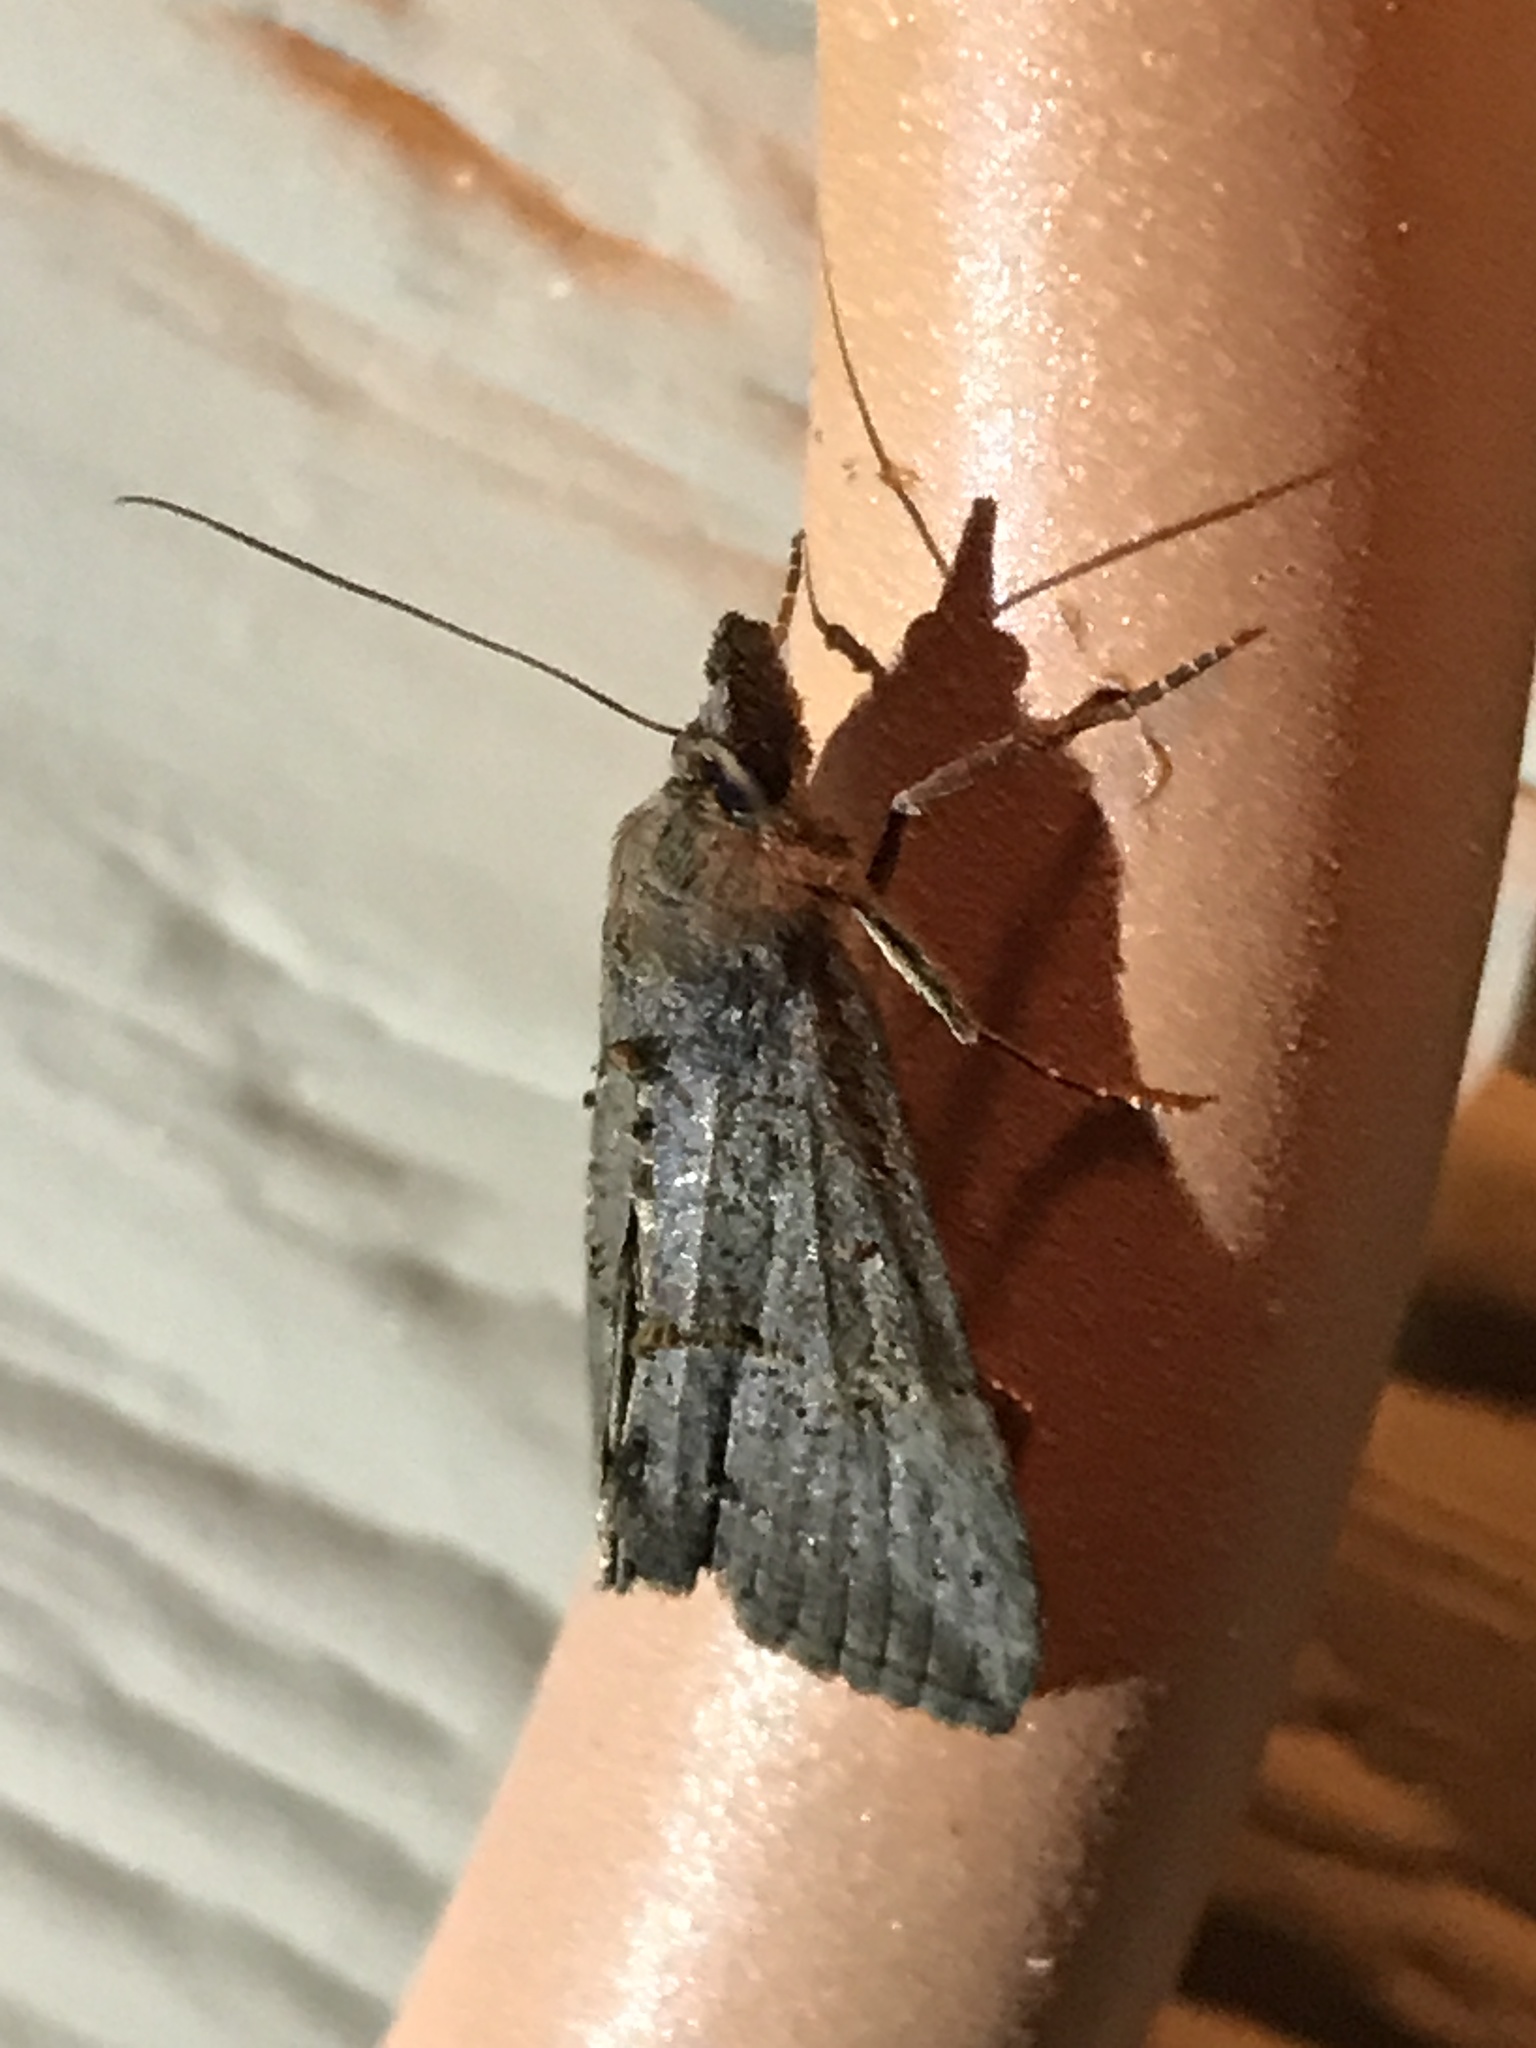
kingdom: Animalia
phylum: Arthropoda
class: Insecta
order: Lepidoptera
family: Erebidae
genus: Hypena
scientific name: Hypena scabra
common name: Green cloverworm
